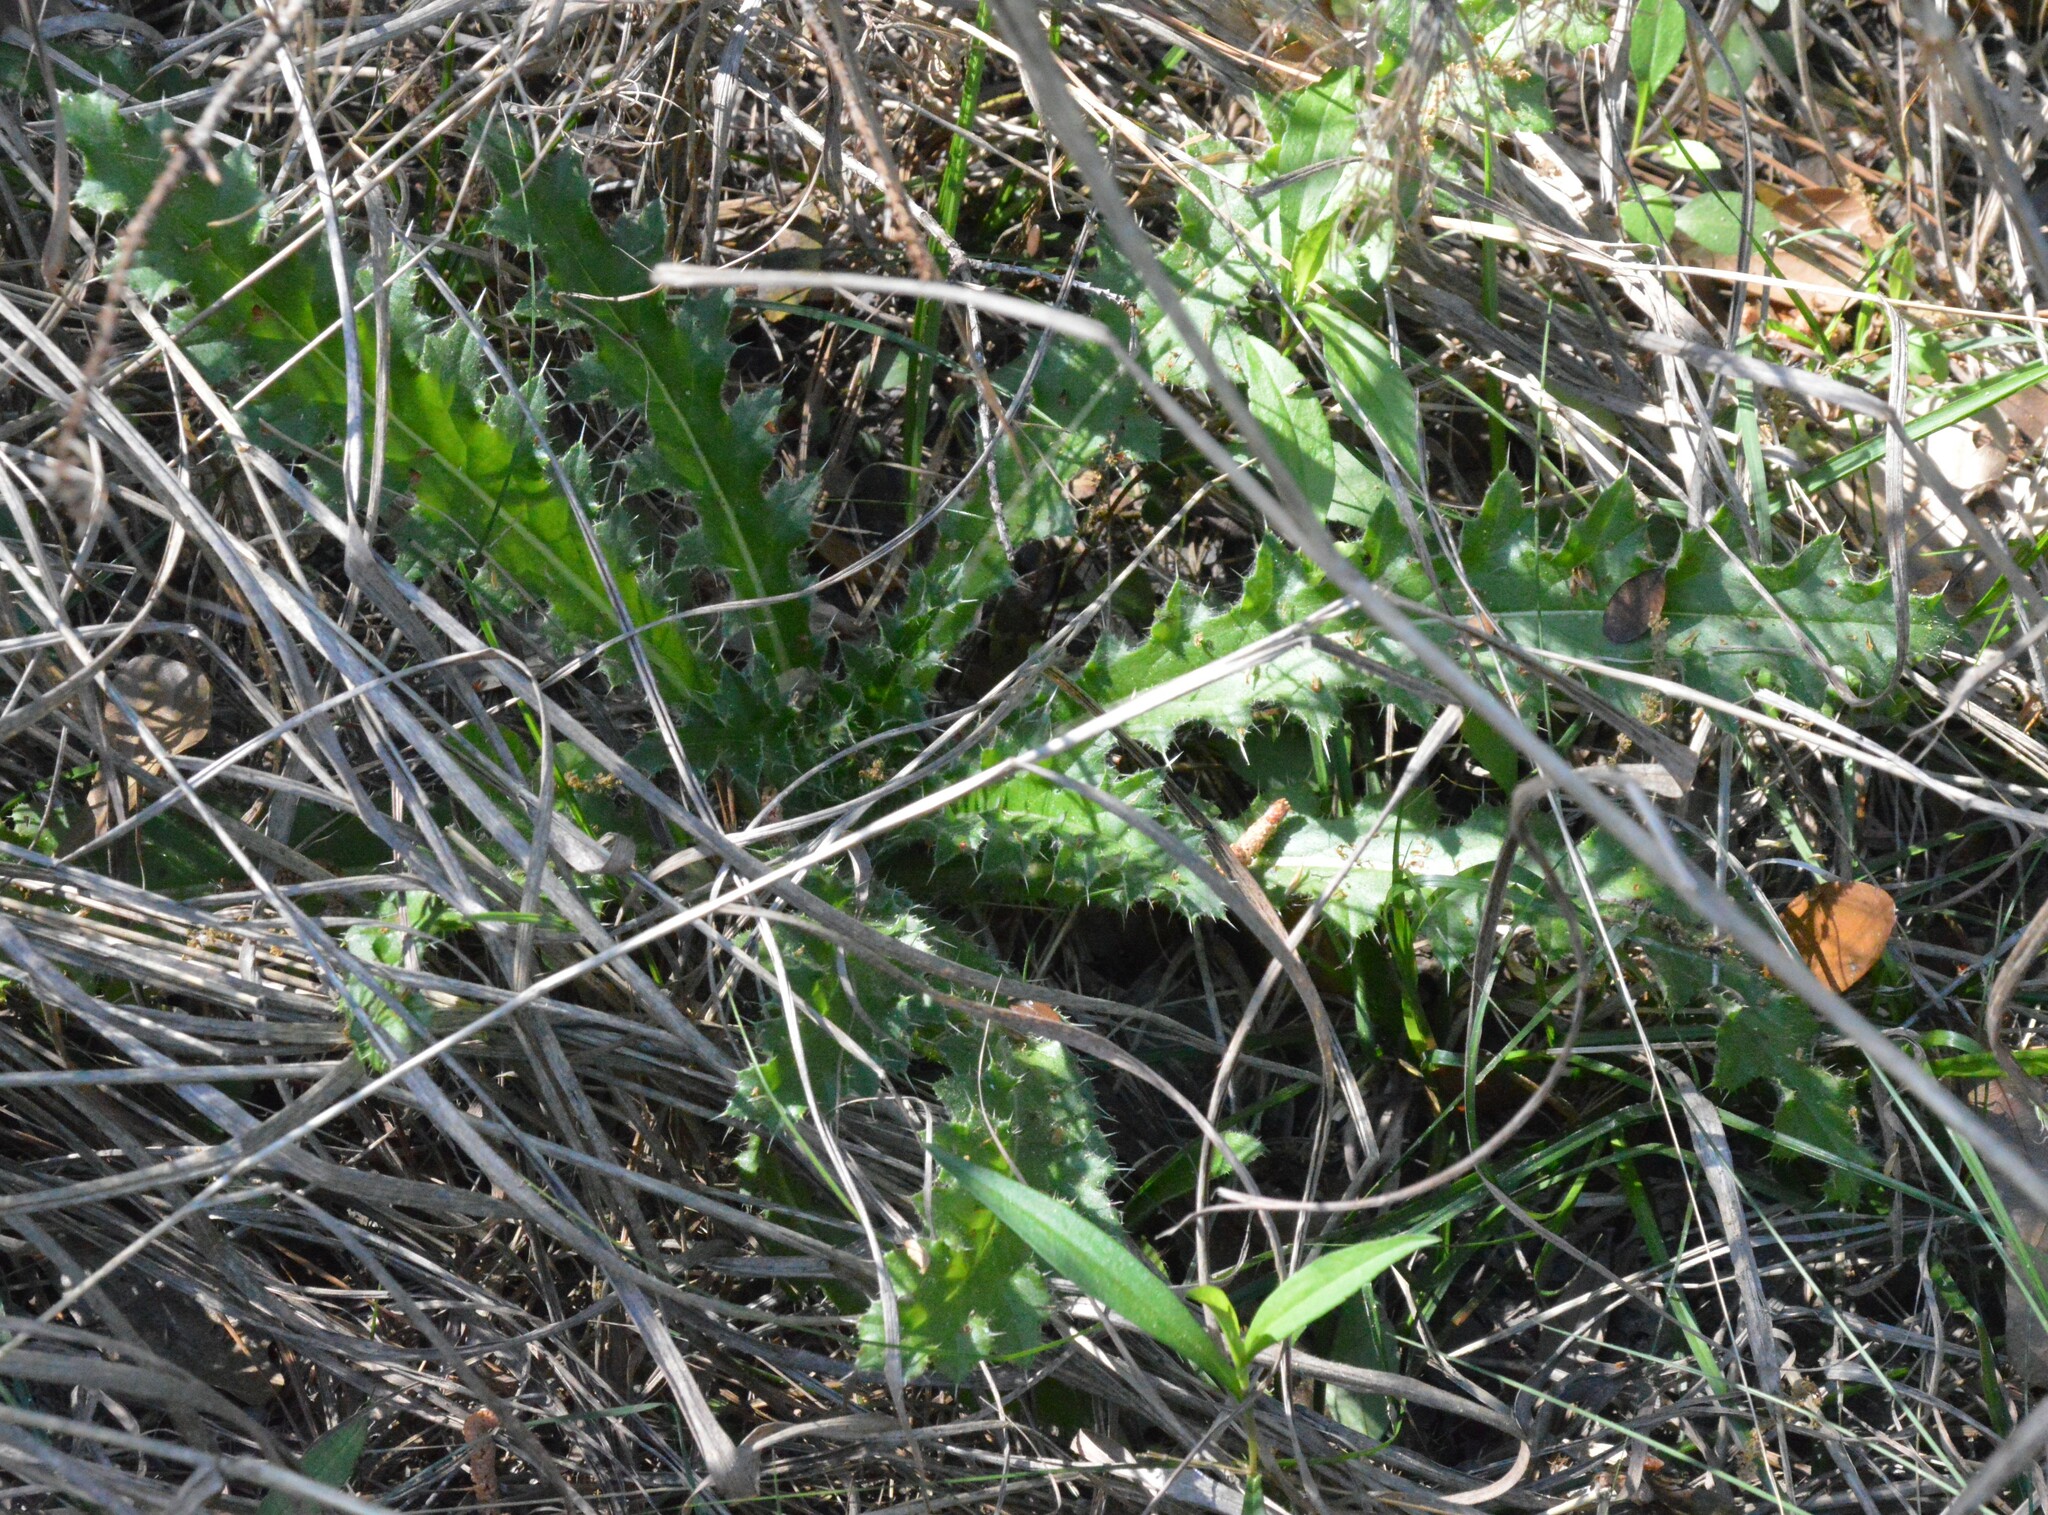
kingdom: Plantae
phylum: Tracheophyta
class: Magnoliopsida
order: Asterales
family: Asteraceae
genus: Cirsium
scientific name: Cirsium horridulum
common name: Bristly thistle
